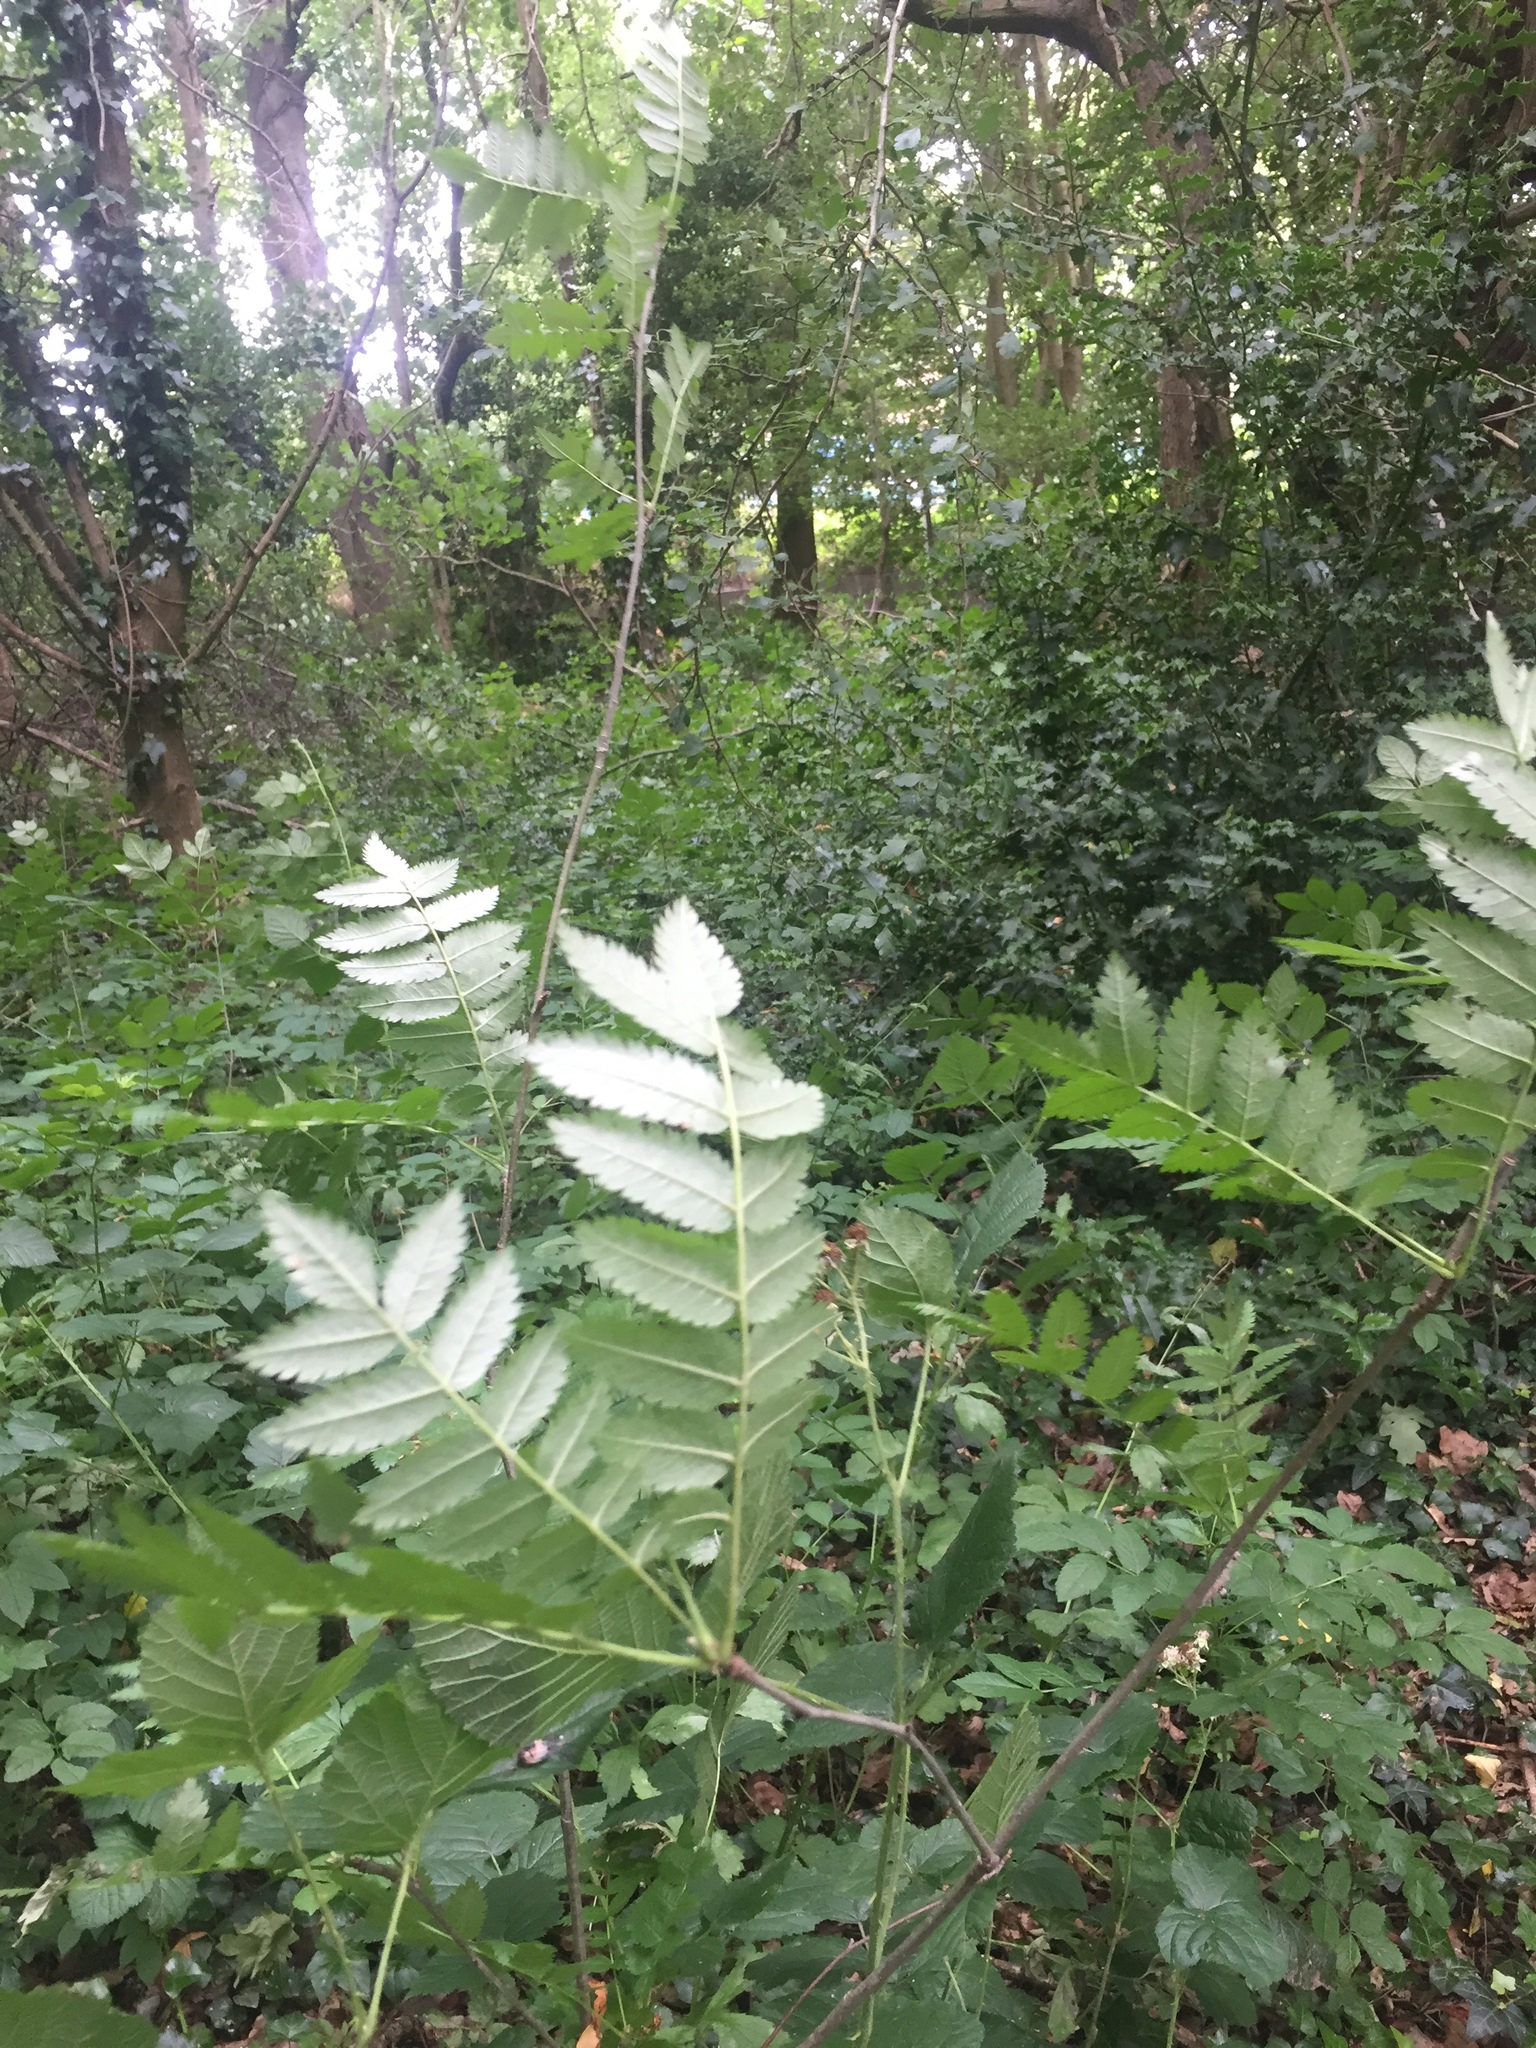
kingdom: Plantae
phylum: Tracheophyta
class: Magnoliopsida
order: Rosales
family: Rosaceae
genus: Sorbus
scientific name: Sorbus aucuparia
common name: Rowan
